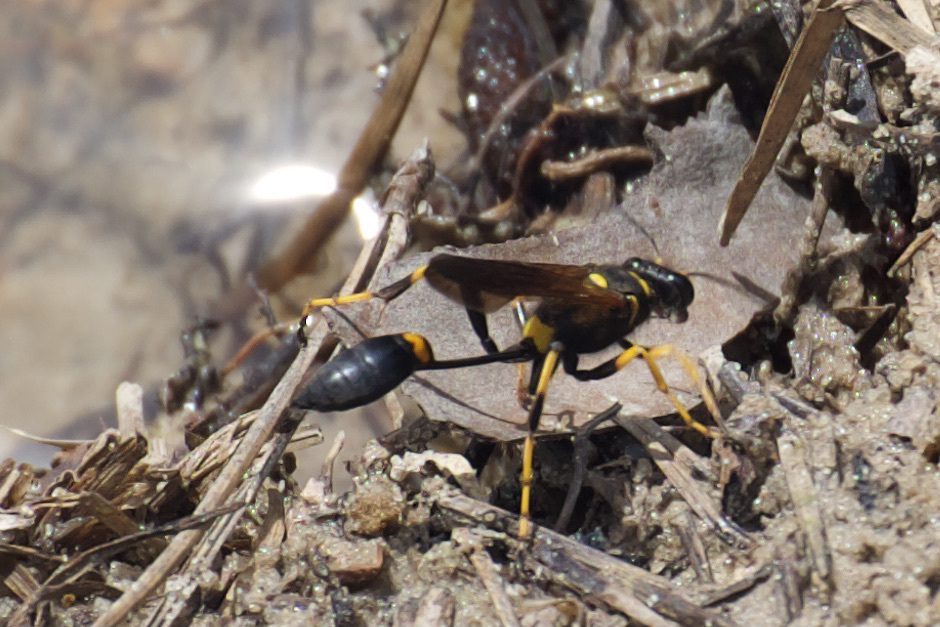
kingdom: Animalia
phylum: Arthropoda
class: Insecta
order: Hymenoptera
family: Sphecidae
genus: Sceliphron
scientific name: Sceliphron caementarium
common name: Mud dauber
